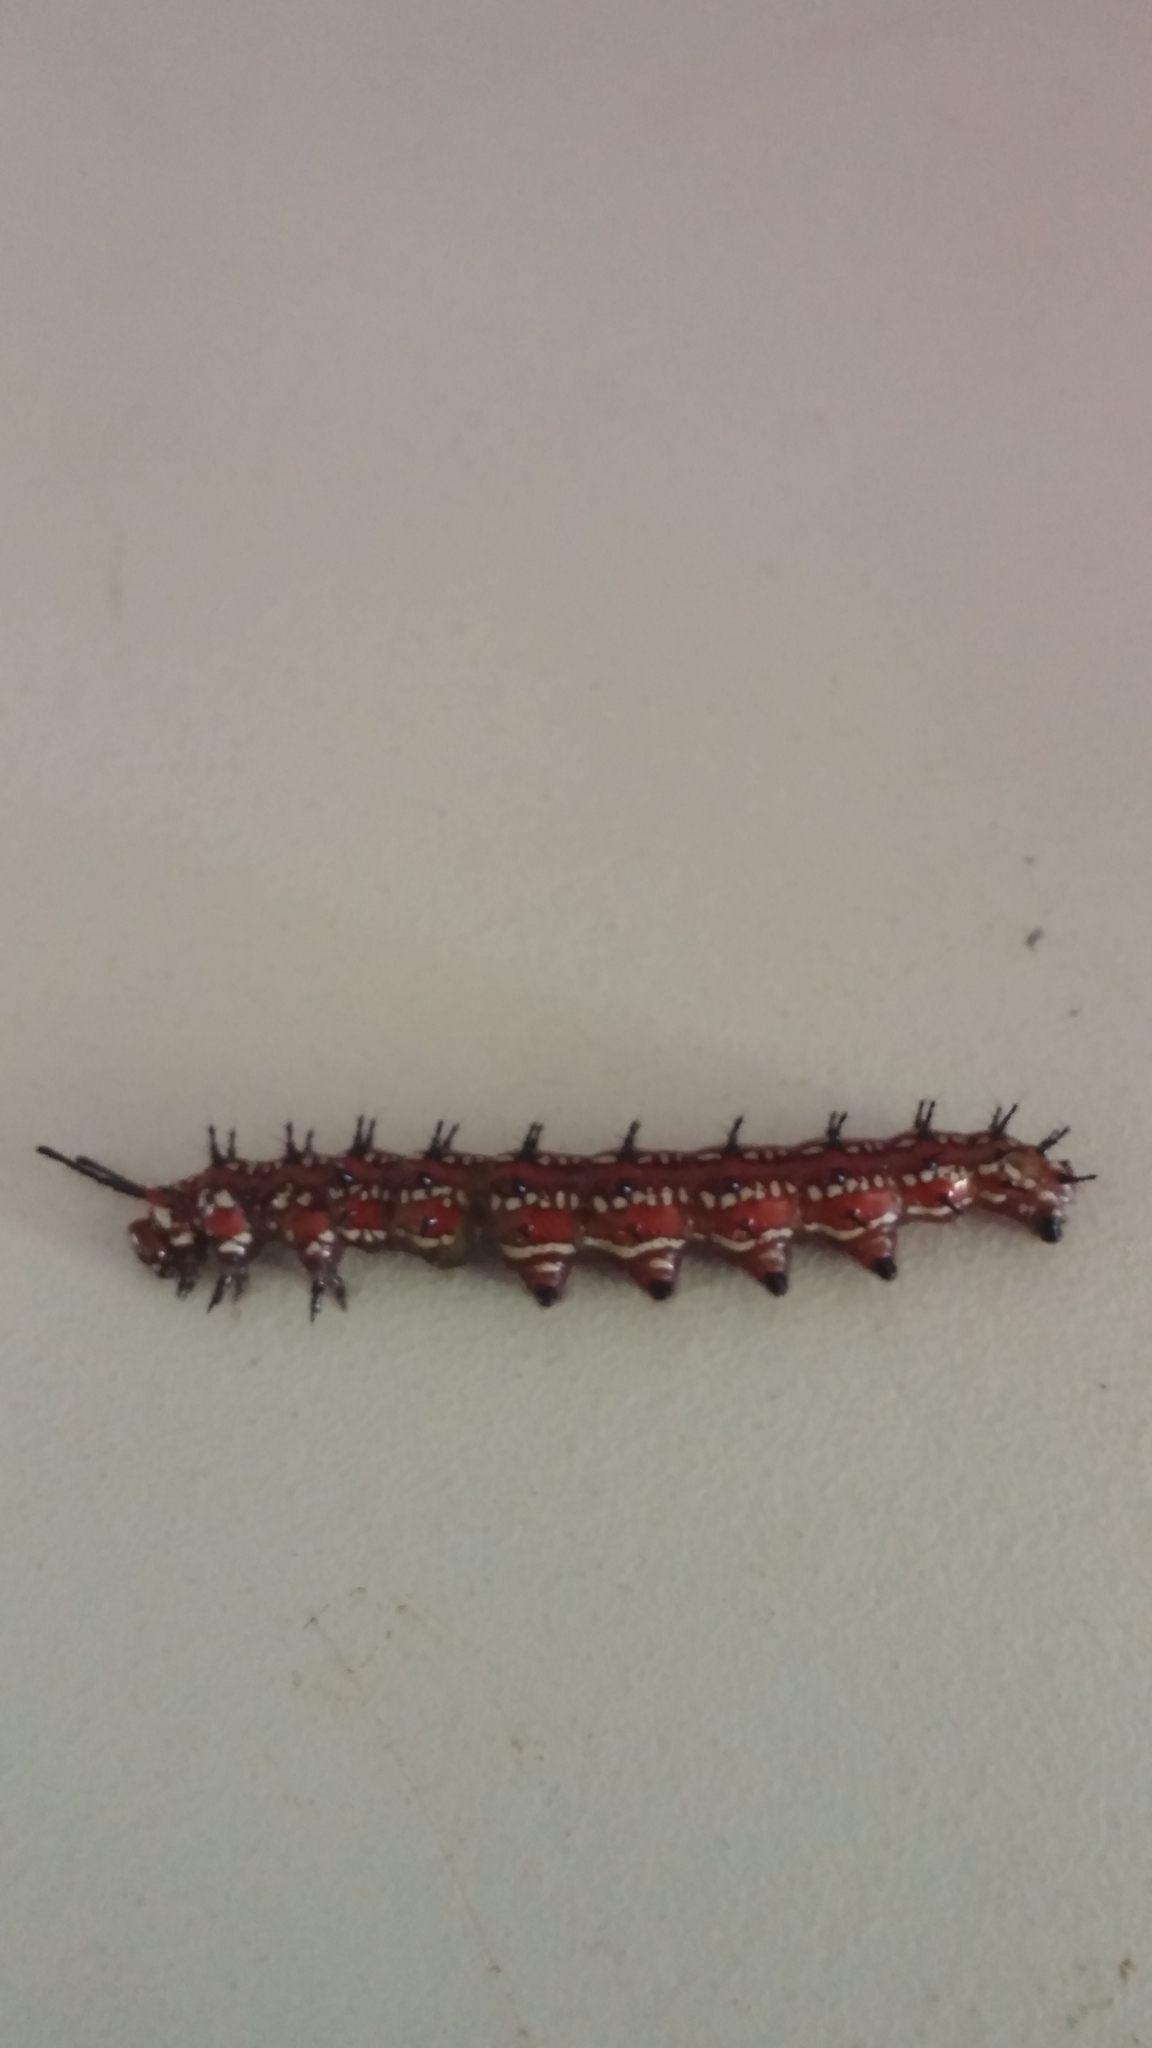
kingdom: Animalia
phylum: Arthropoda
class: Insecta
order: Lepidoptera
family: Nymphalidae
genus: Euptoieta
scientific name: Euptoieta claudia
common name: Variegated fritillary
